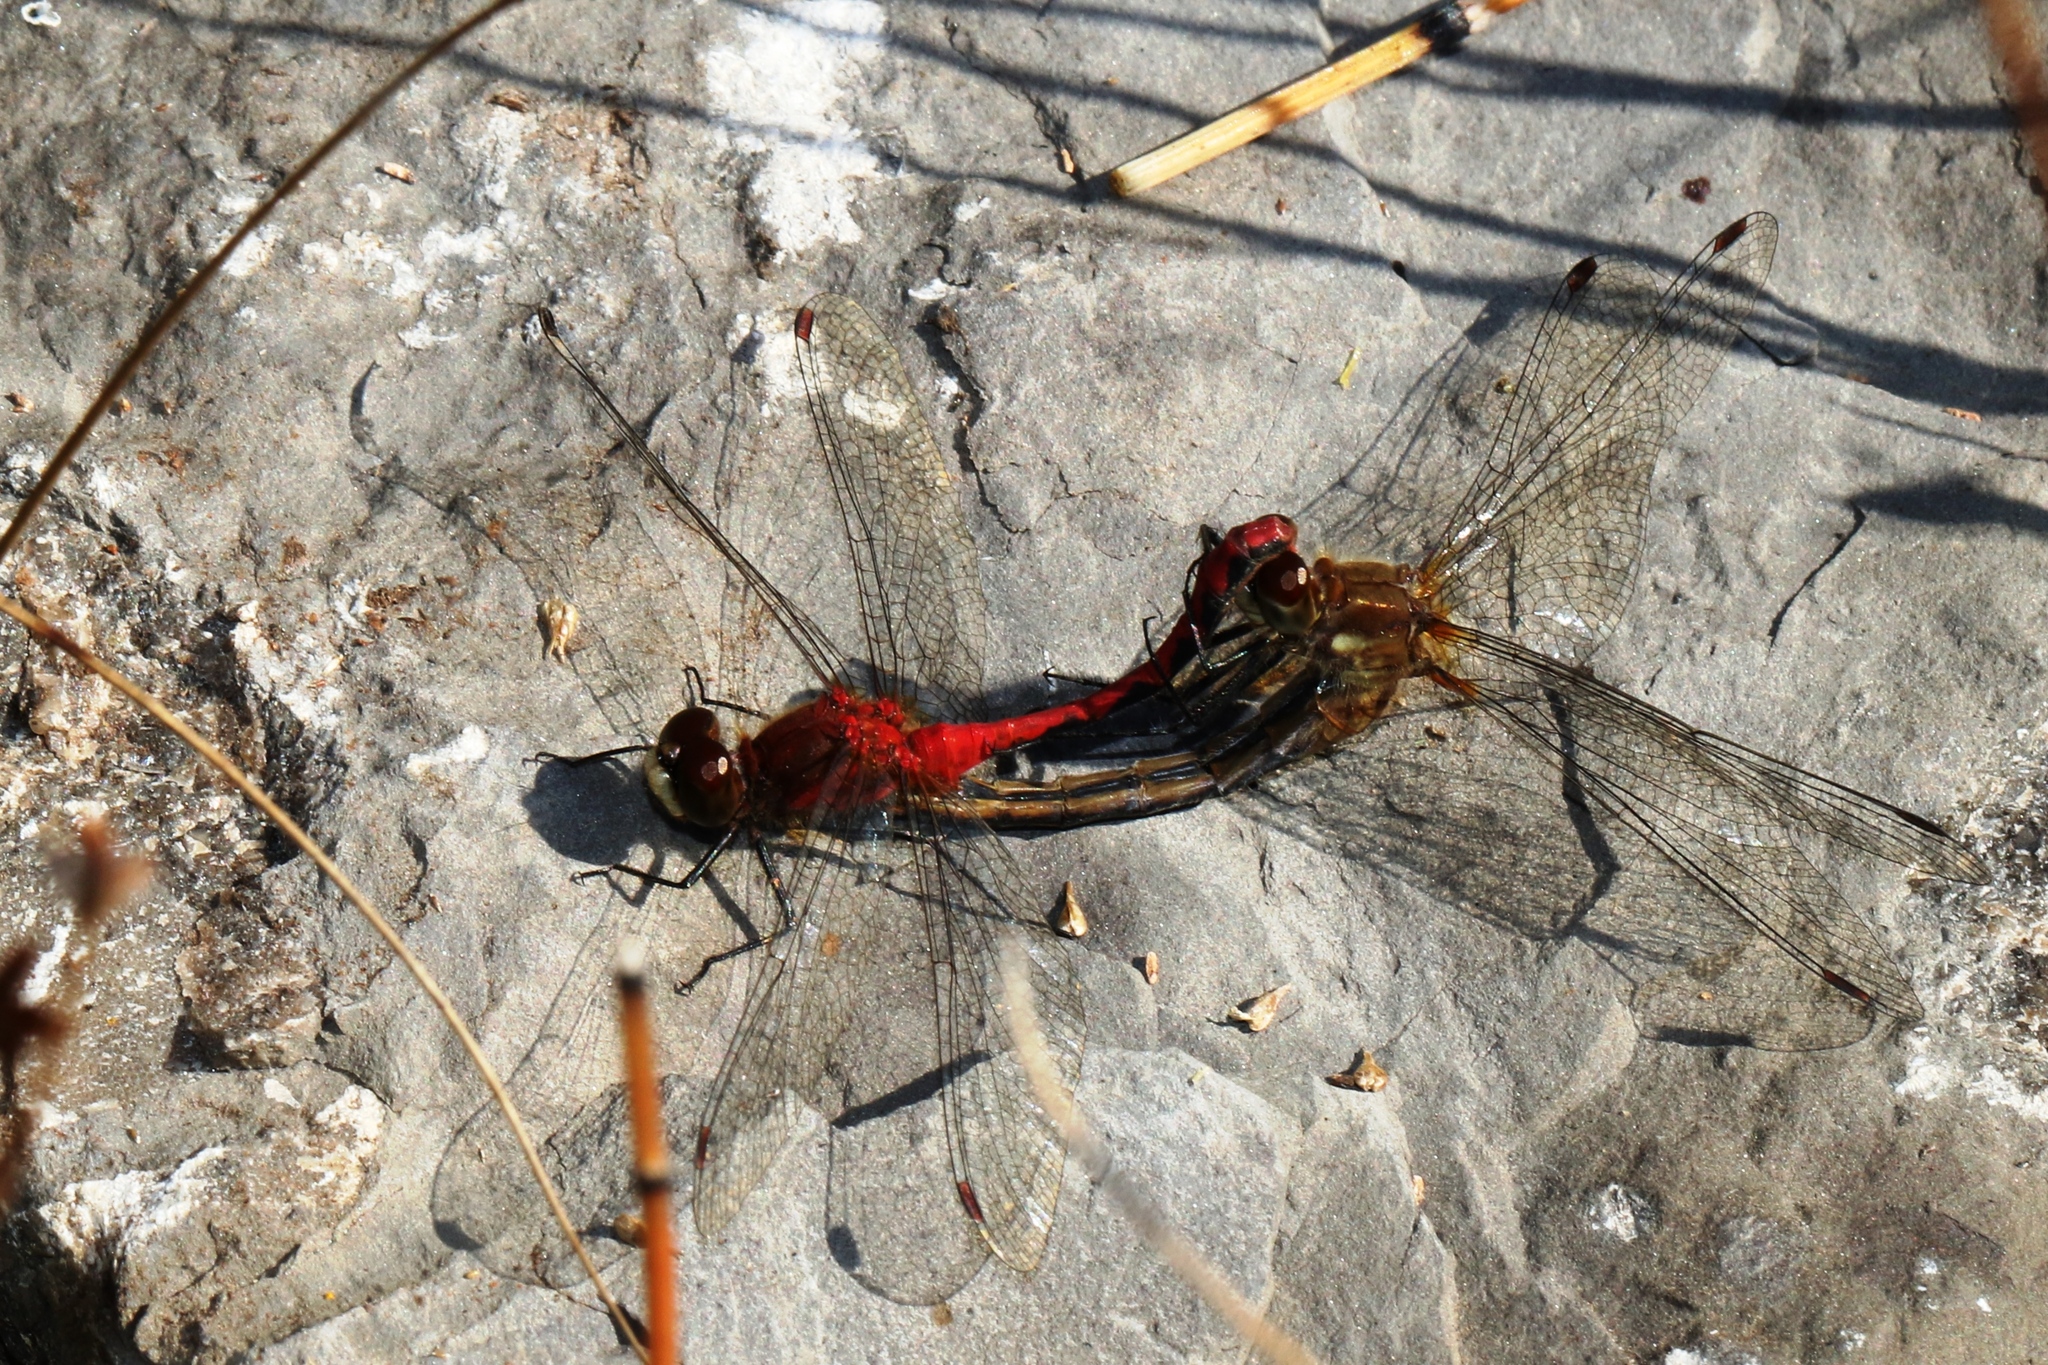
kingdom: Animalia
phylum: Arthropoda
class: Insecta
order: Odonata
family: Libellulidae
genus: Sympetrum
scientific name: Sympetrum obtrusum
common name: White-faced meadowhawk
